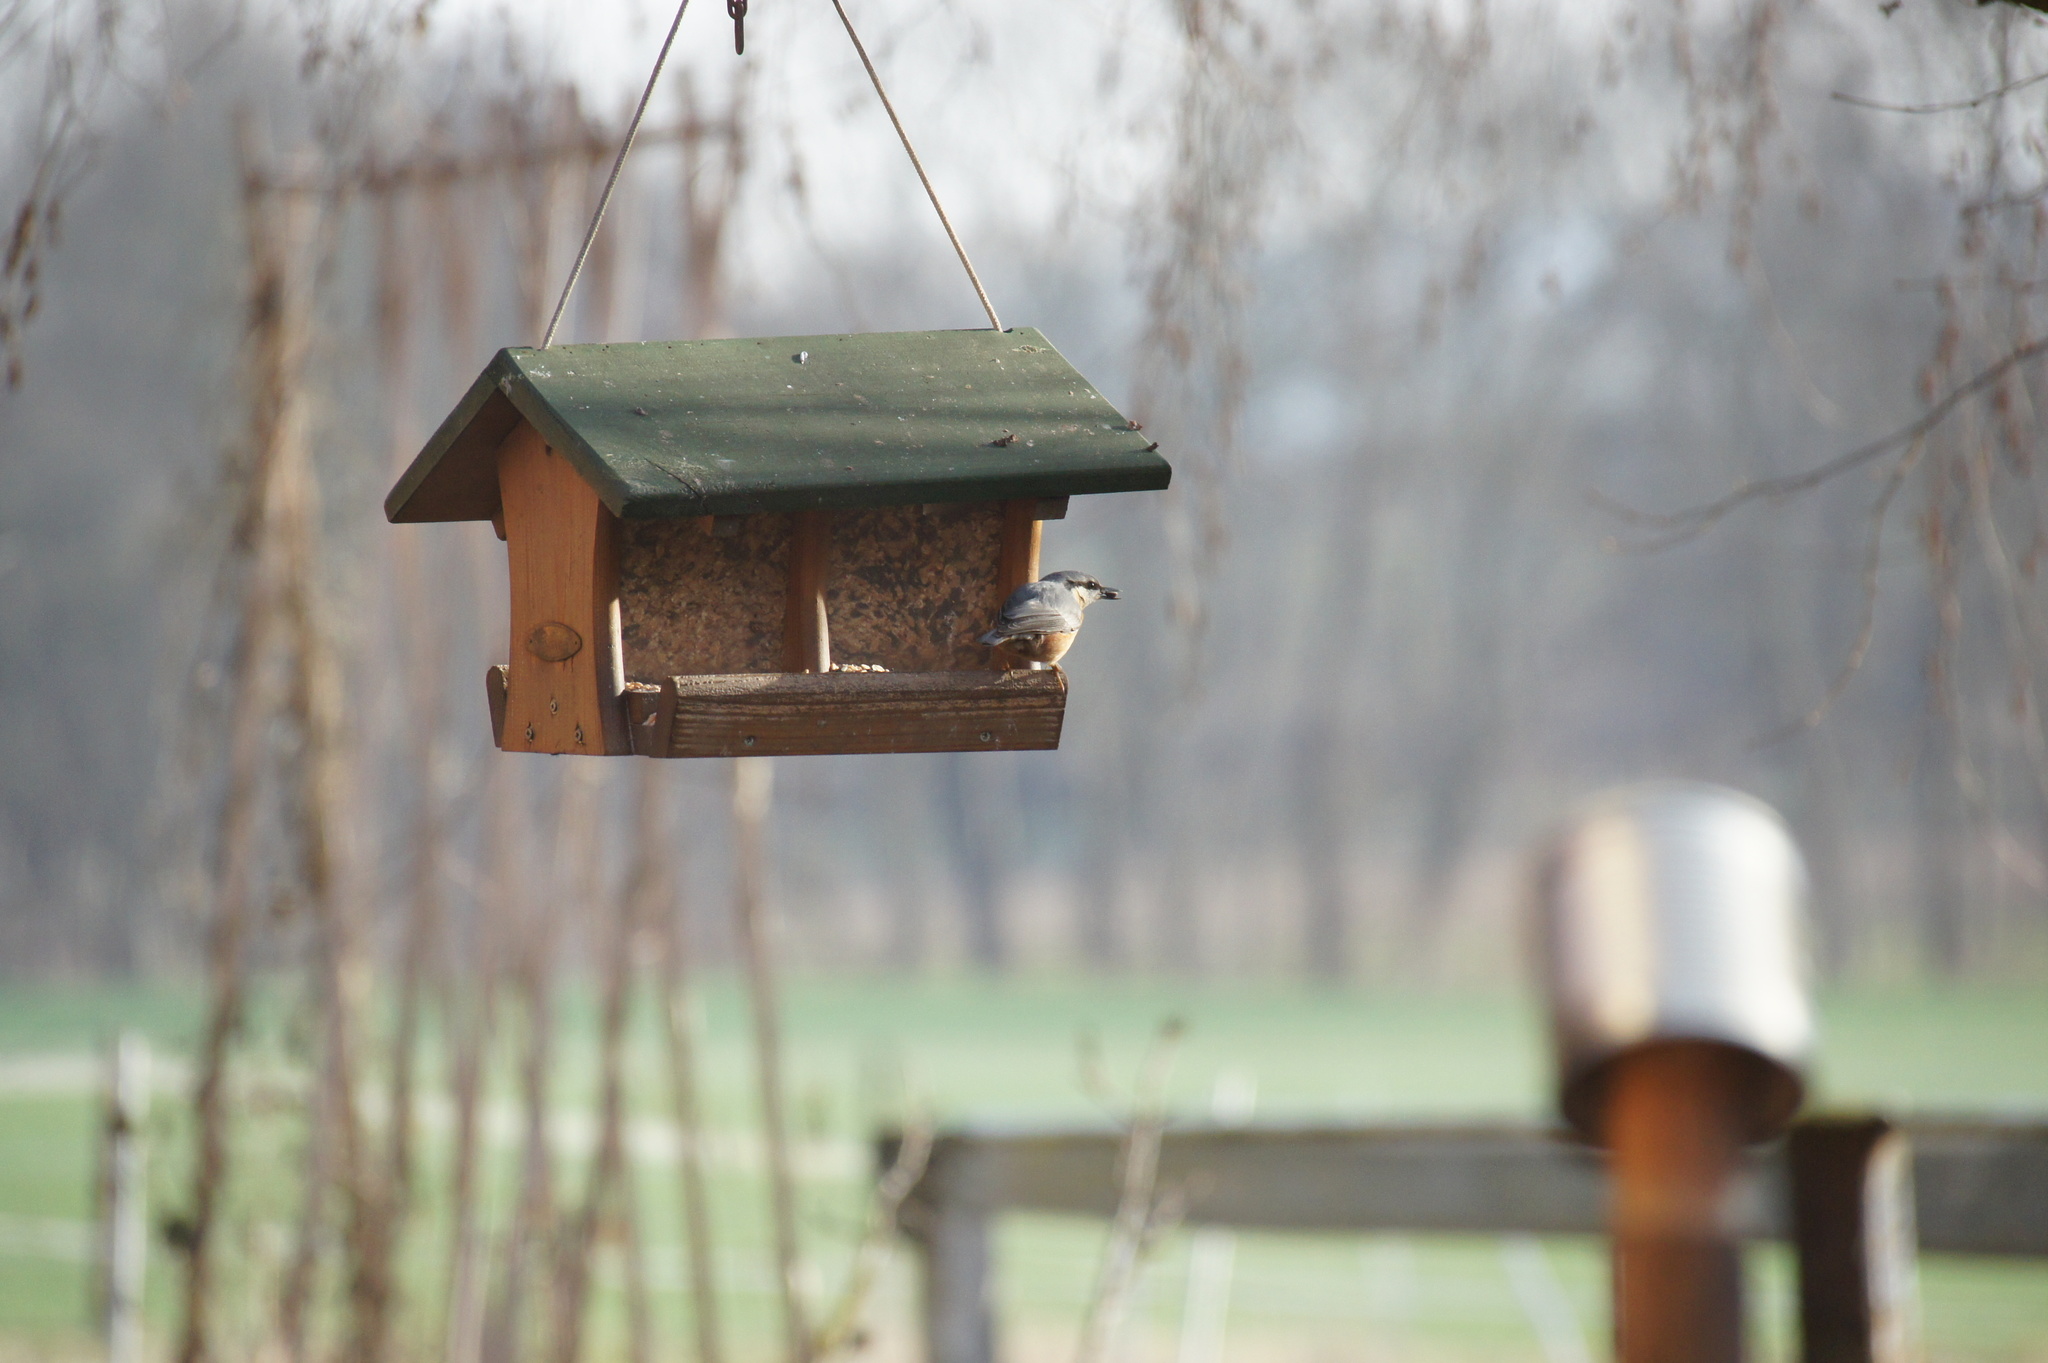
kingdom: Animalia
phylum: Chordata
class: Aves
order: Passeriformes
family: Sittidae
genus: Sitta
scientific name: Sitta europaea
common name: Eurasian nuthatch
